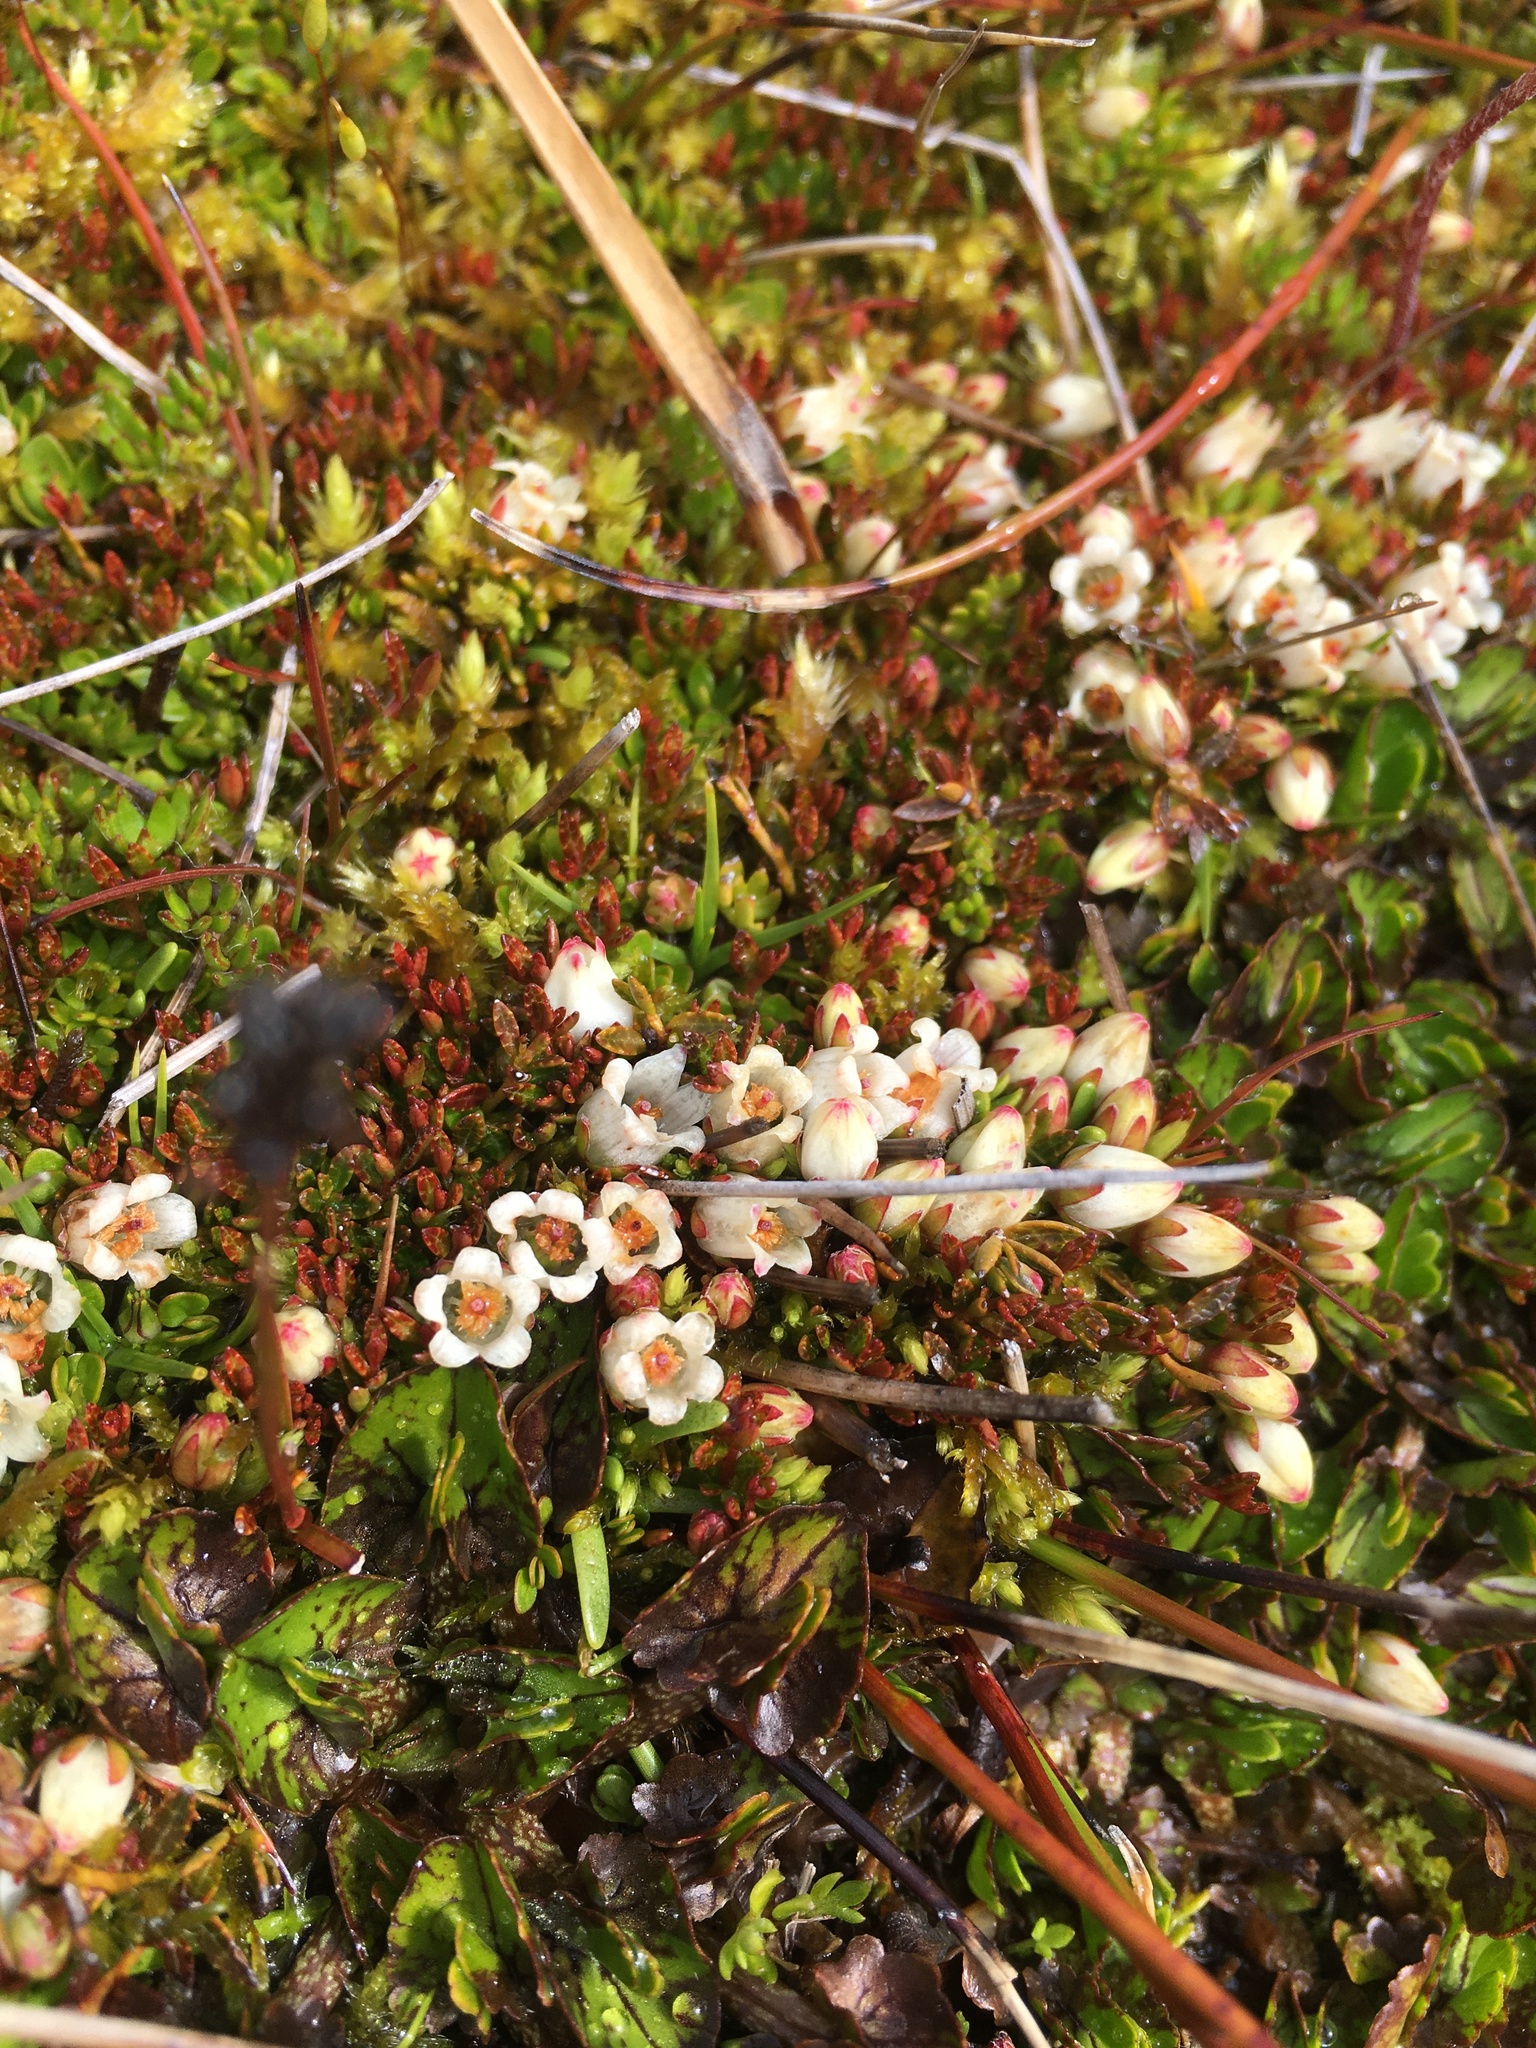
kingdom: Plantae
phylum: Tracheophyta
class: Magnoliopsida
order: Ericales
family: Ericaceae
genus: Gaultheria
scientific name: Gaultheria parvula
